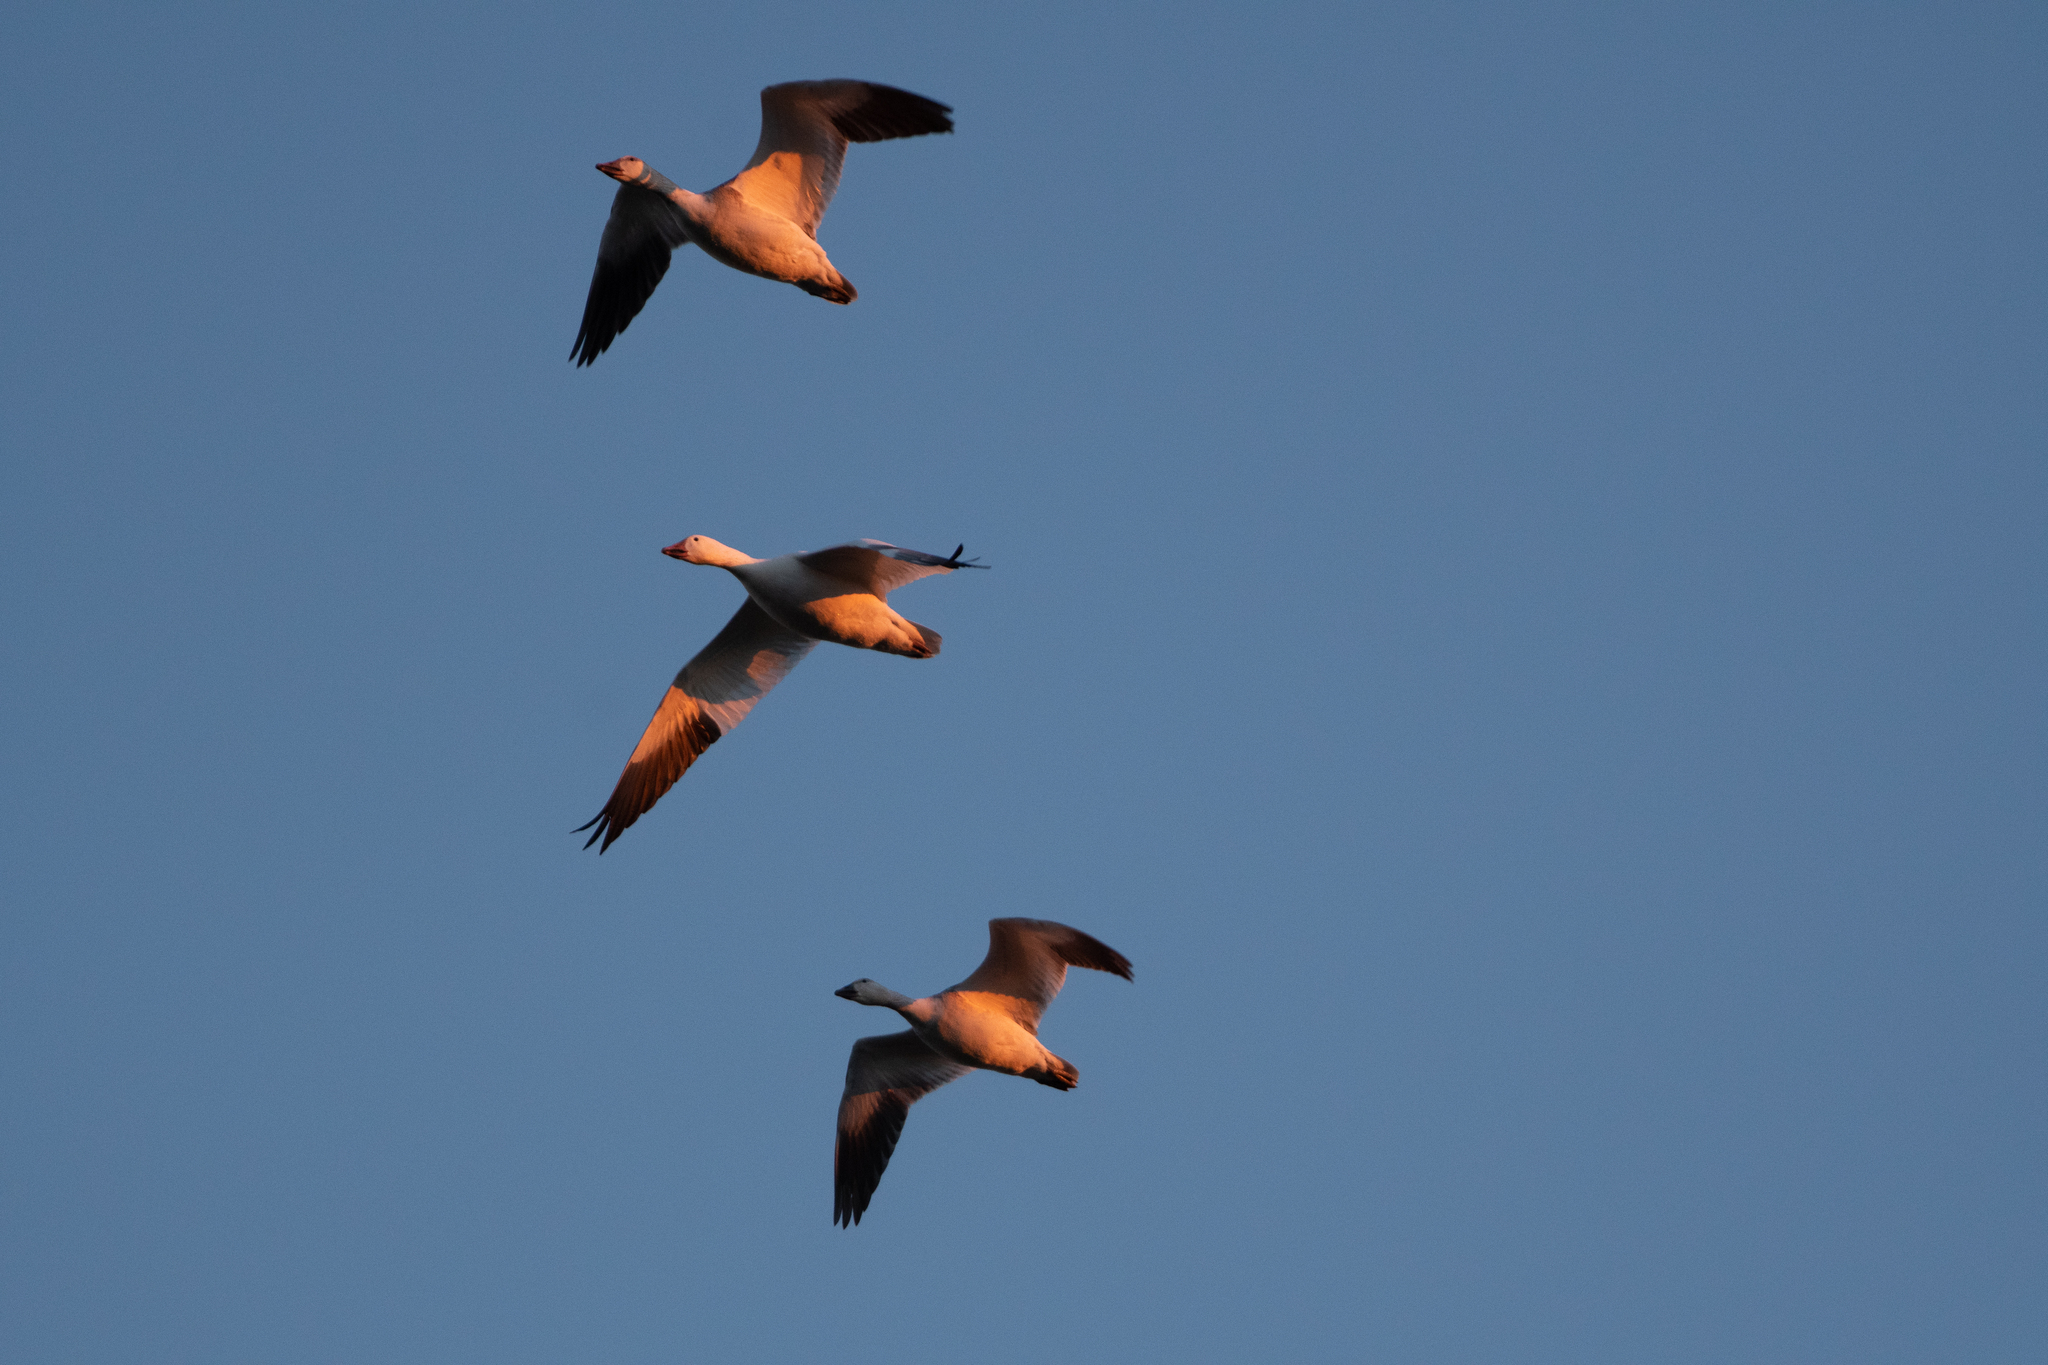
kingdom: Animalia
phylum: Chordata
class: Aves
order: Anseriformes
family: Anatidae
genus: Anser
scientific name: Anser caerulescens
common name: Snow goose
